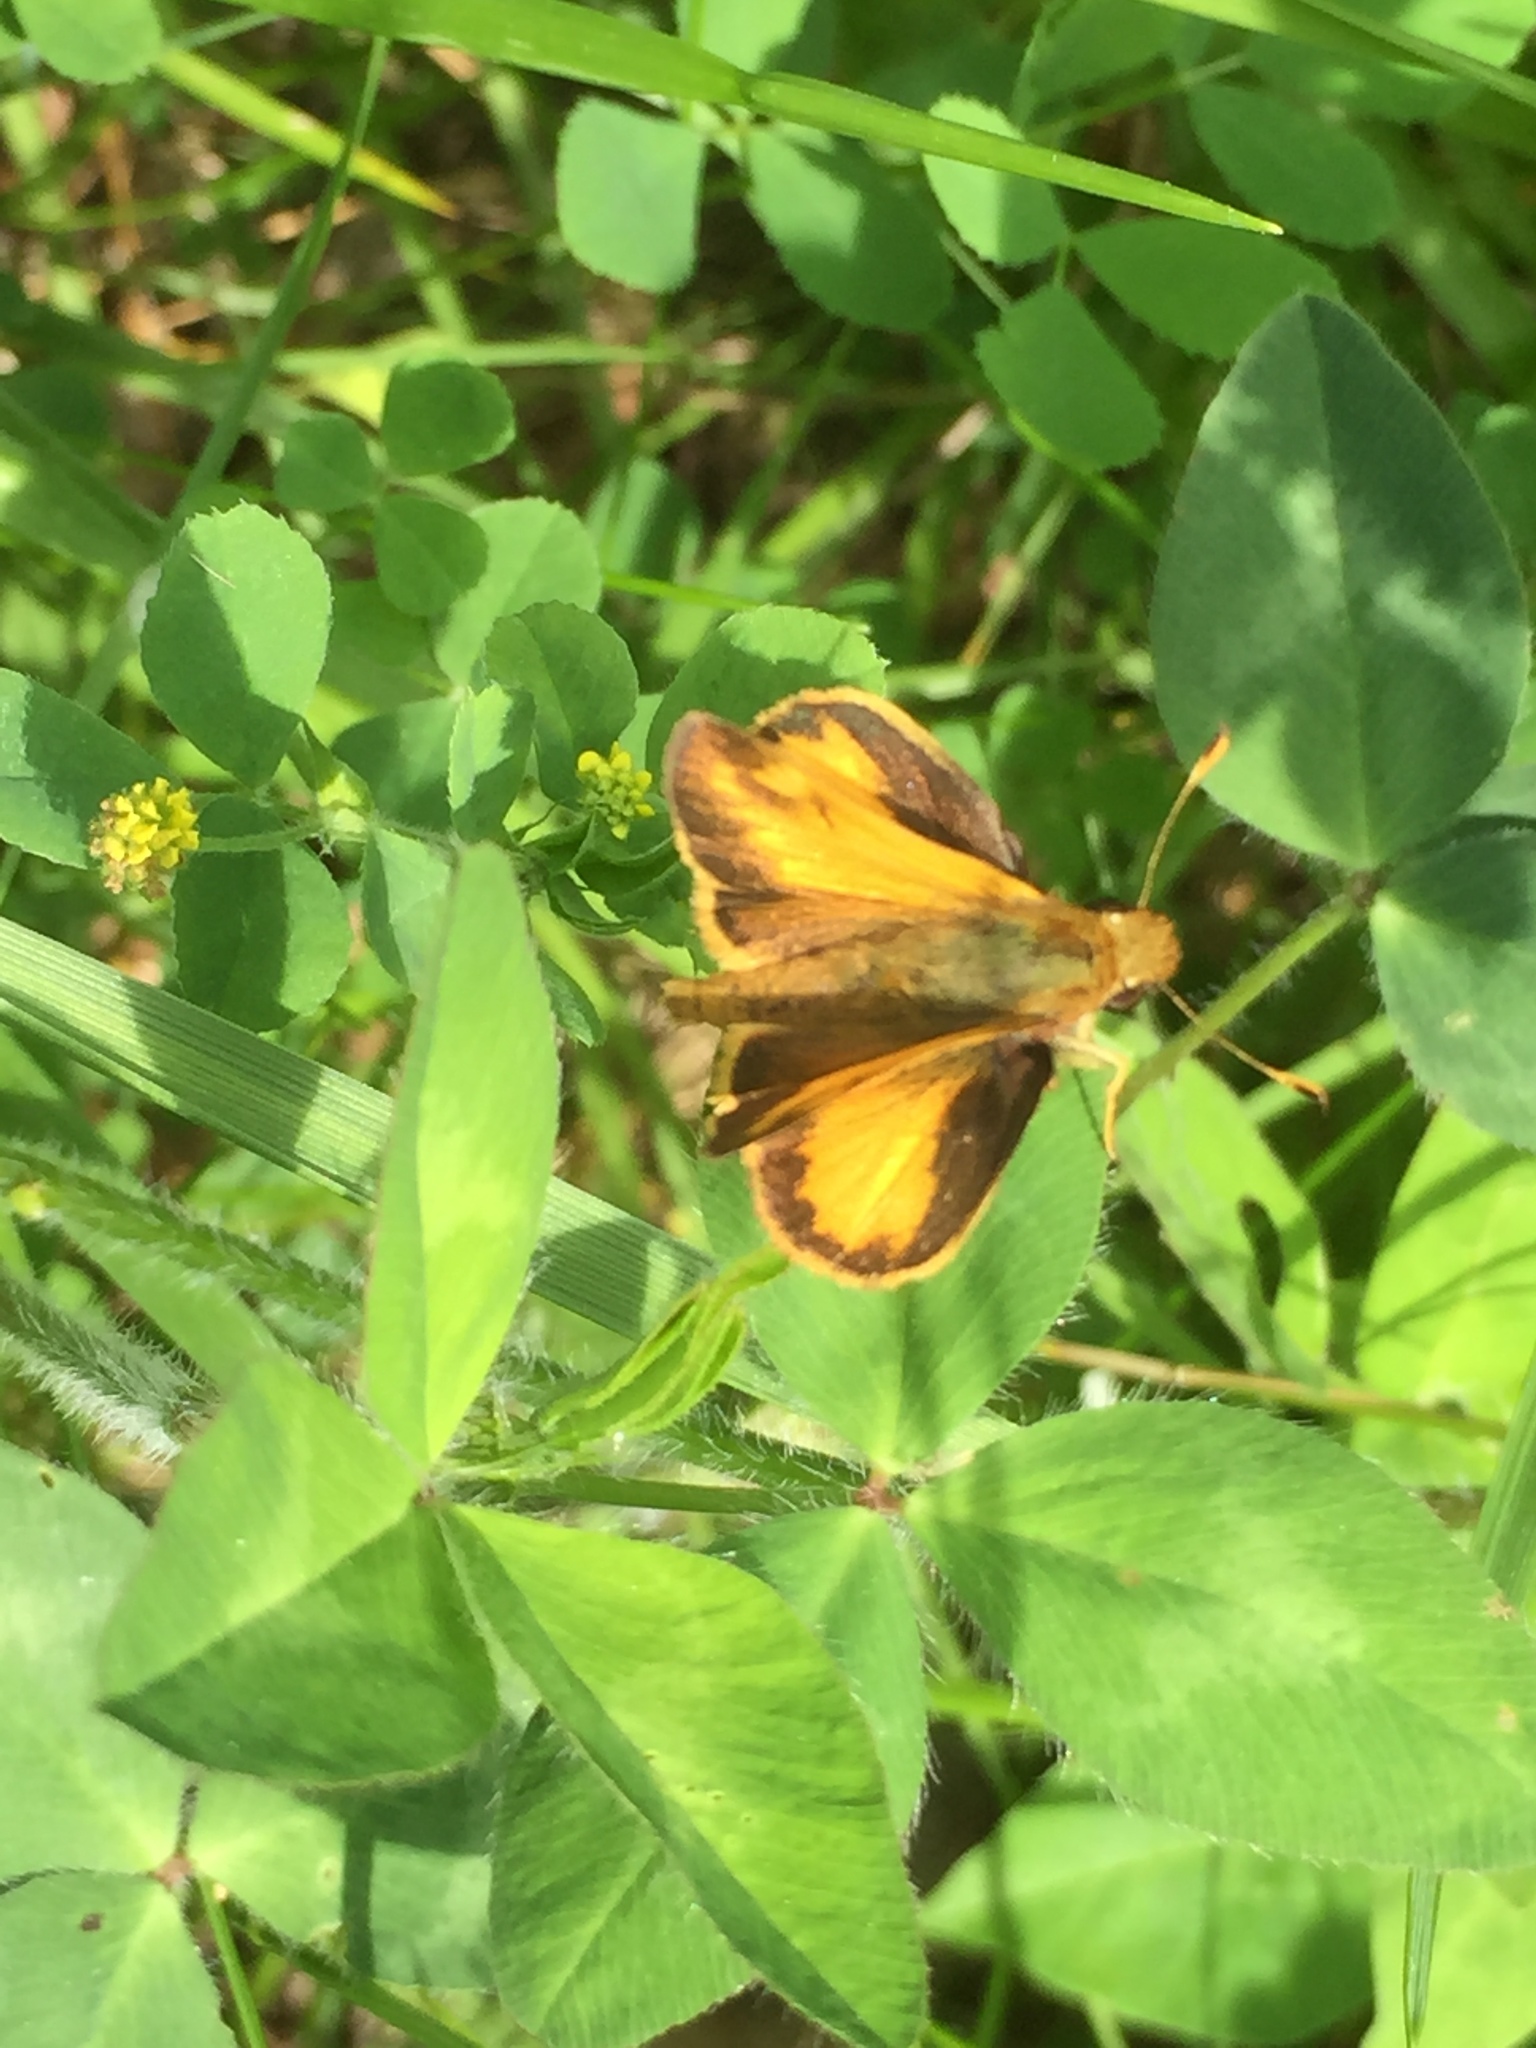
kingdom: Animalia
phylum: Arthropoda
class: Insecta
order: Lepidoptera
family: Hesperiidae
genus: Lon
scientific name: Lon zabulon
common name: Zabulon skipper
